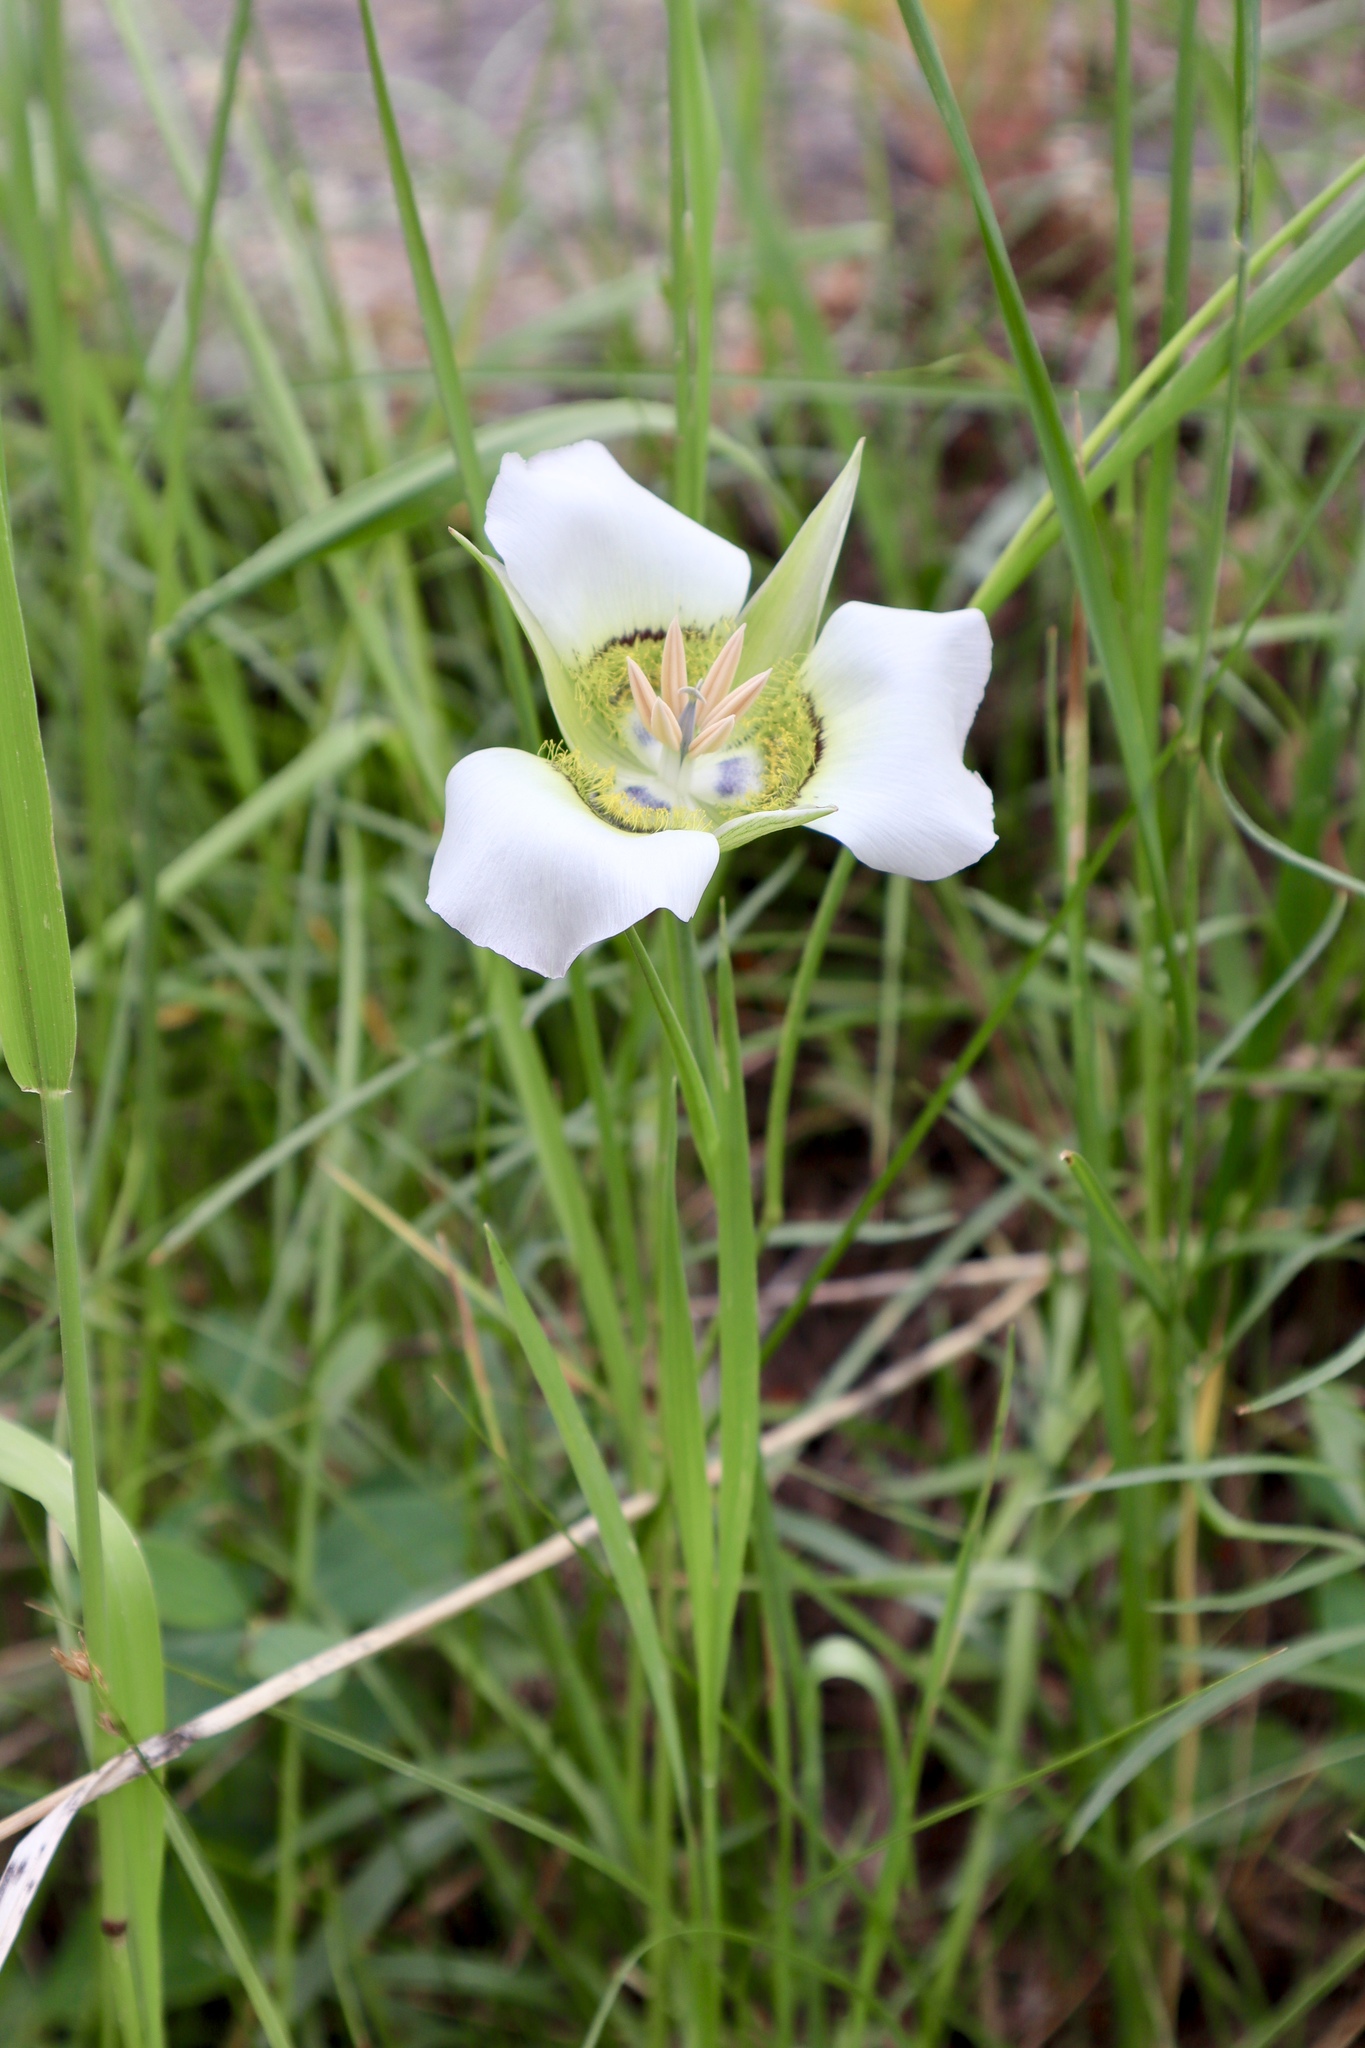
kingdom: Plantae
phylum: Tracheophyta
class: Liliopsida
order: Liliales
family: Liliaceae
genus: Calochortus
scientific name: Calochortus gunnisonii
